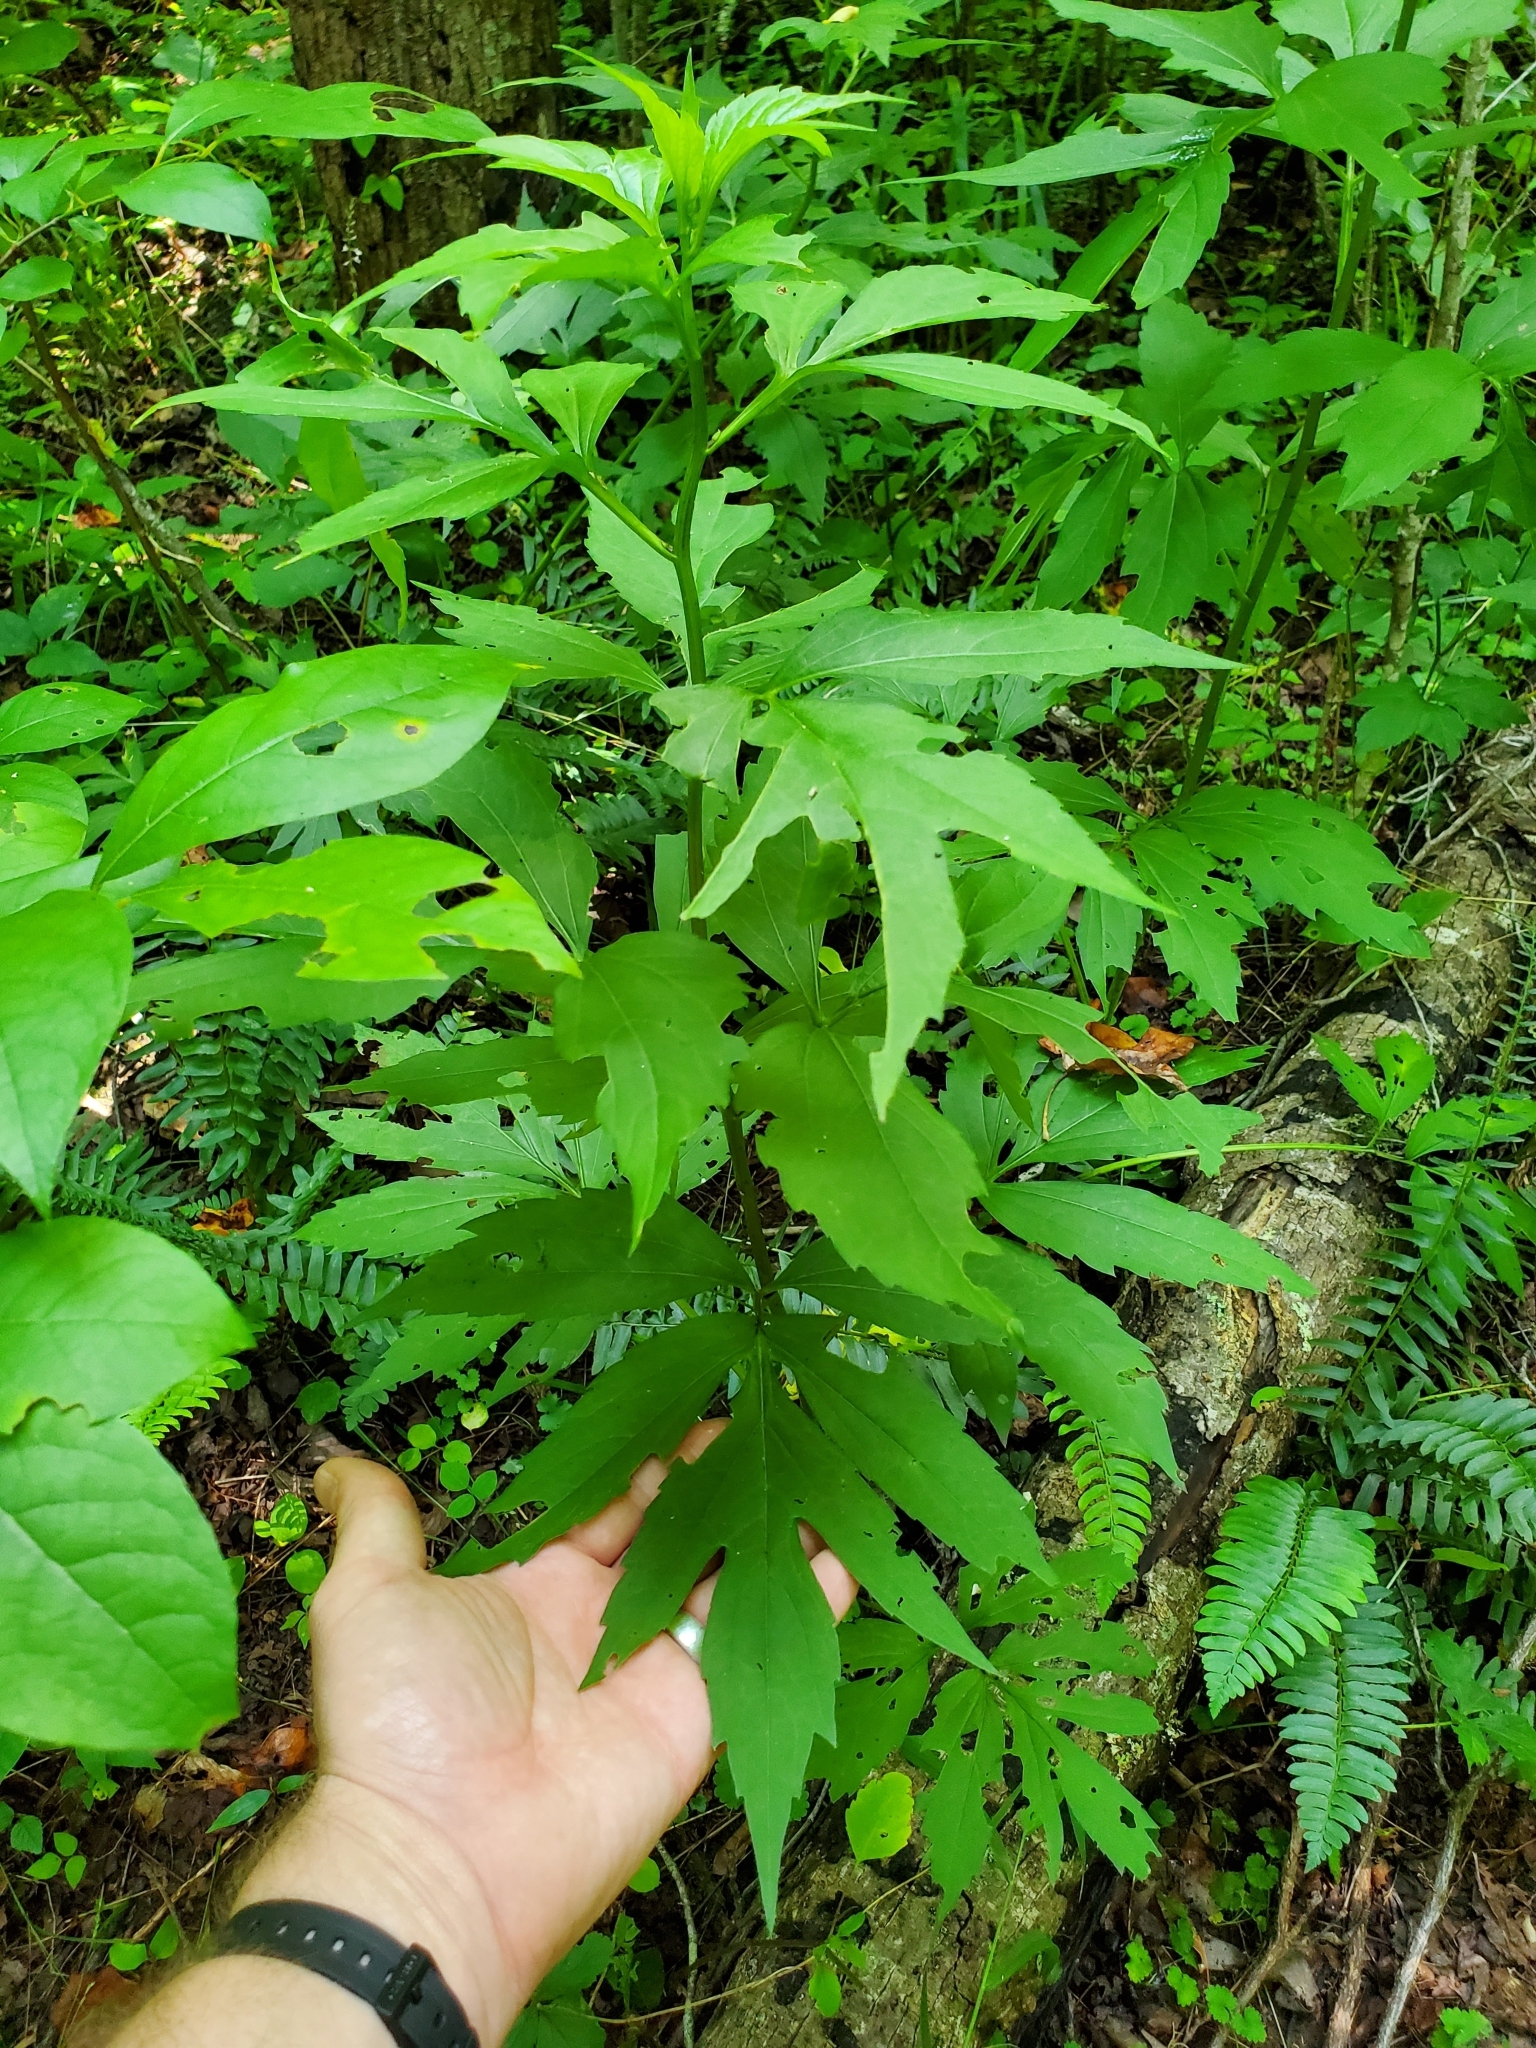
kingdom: Plantae
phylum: Tracheophyta
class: Magnoliopsida
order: Asterales
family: Asteraceae
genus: Rudbeckia
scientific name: Rudbeckia laciniata
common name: Coneflower
